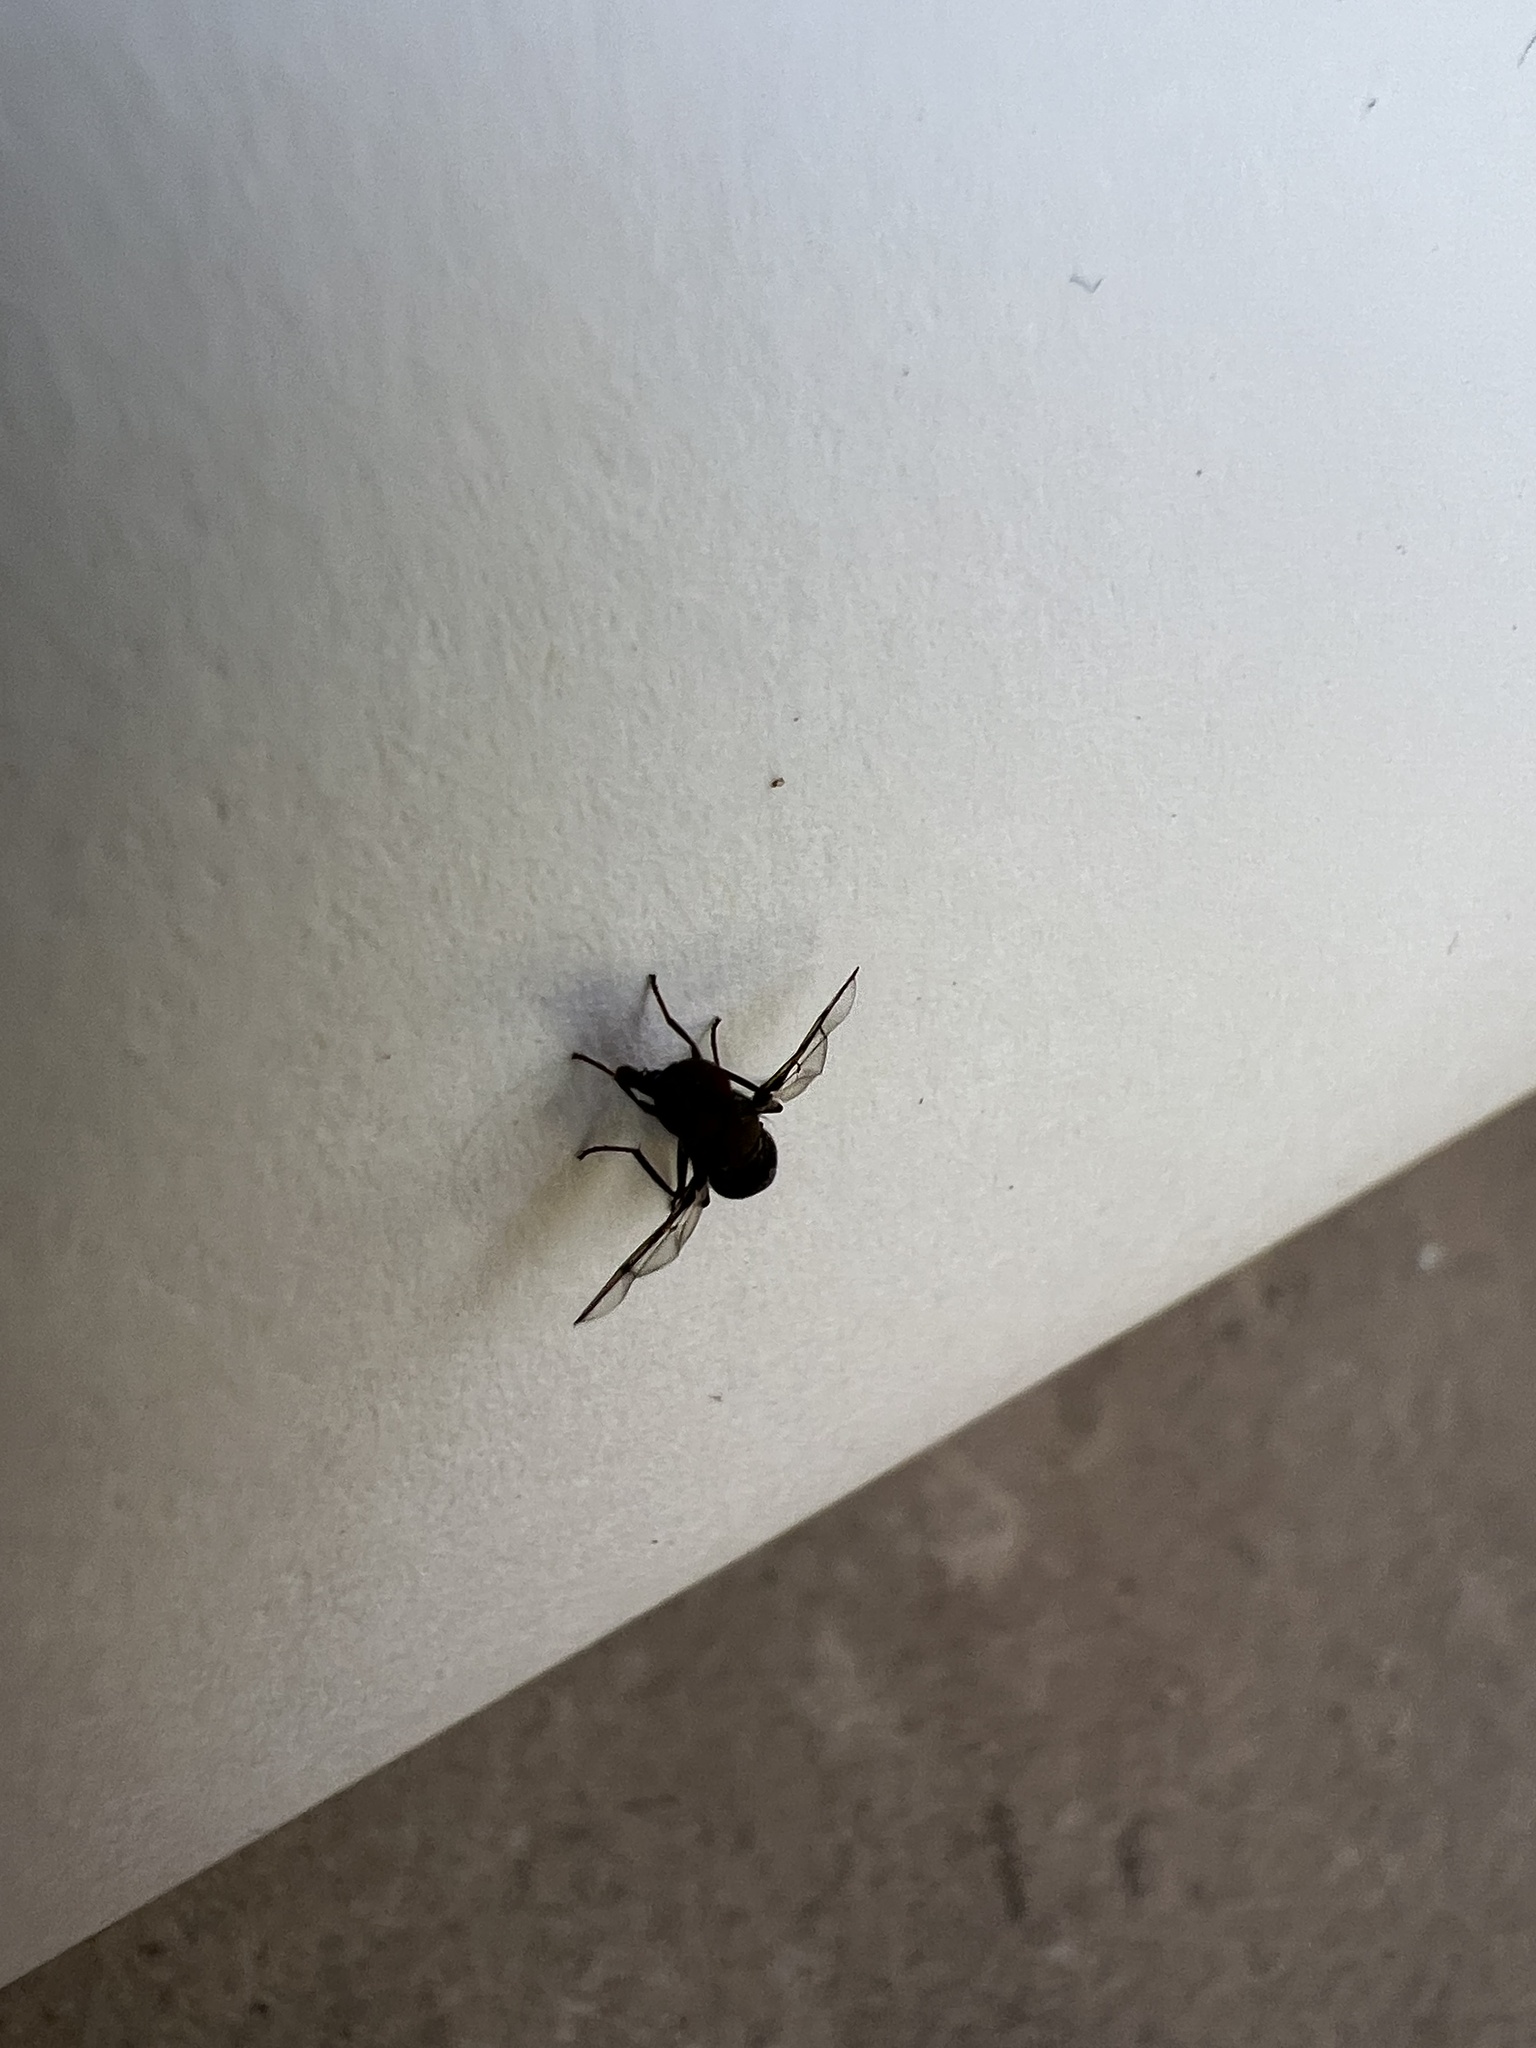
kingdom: Animalia
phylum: Arthropoda
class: Insecta
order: Diptera
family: Platystomatidae
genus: Pogonortalis
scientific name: Pogonortalis doclea
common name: Boatman fly
